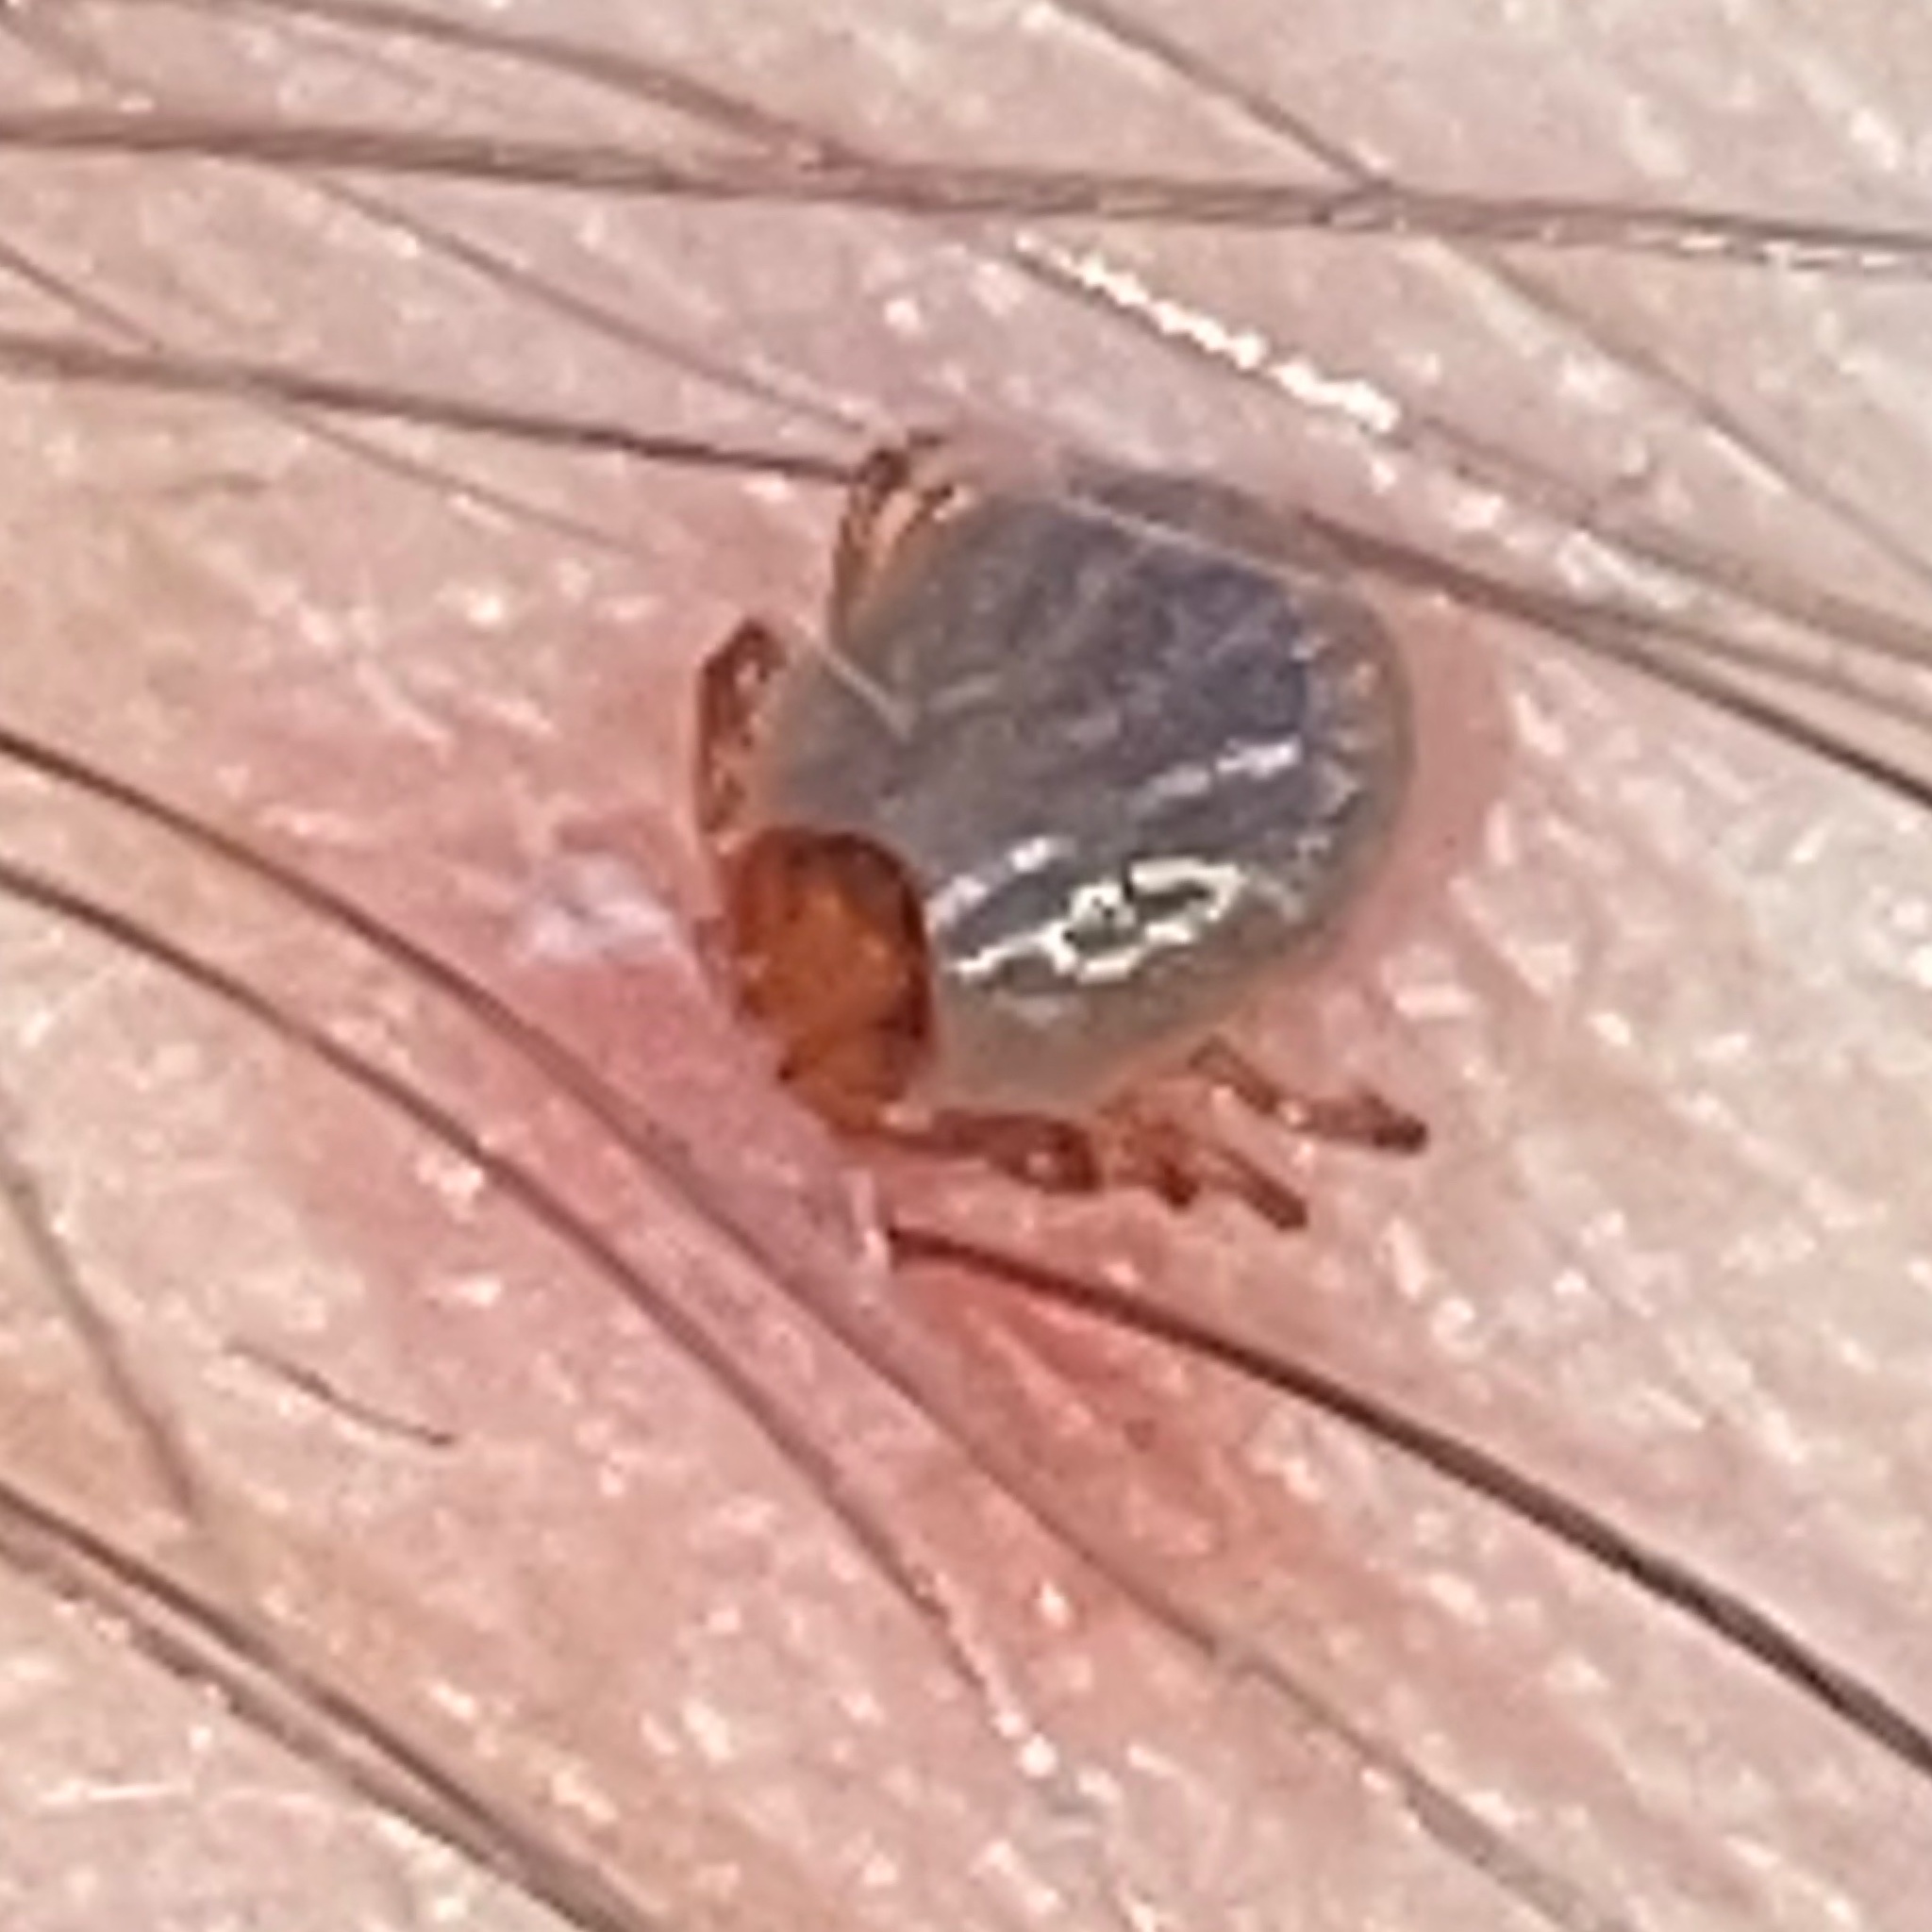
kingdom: Animalia
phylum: Arthropoda
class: Arachnida
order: Ixodida
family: Ixodidae
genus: Amblyomma
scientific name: Amblyomma americanum
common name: Lone star tick
